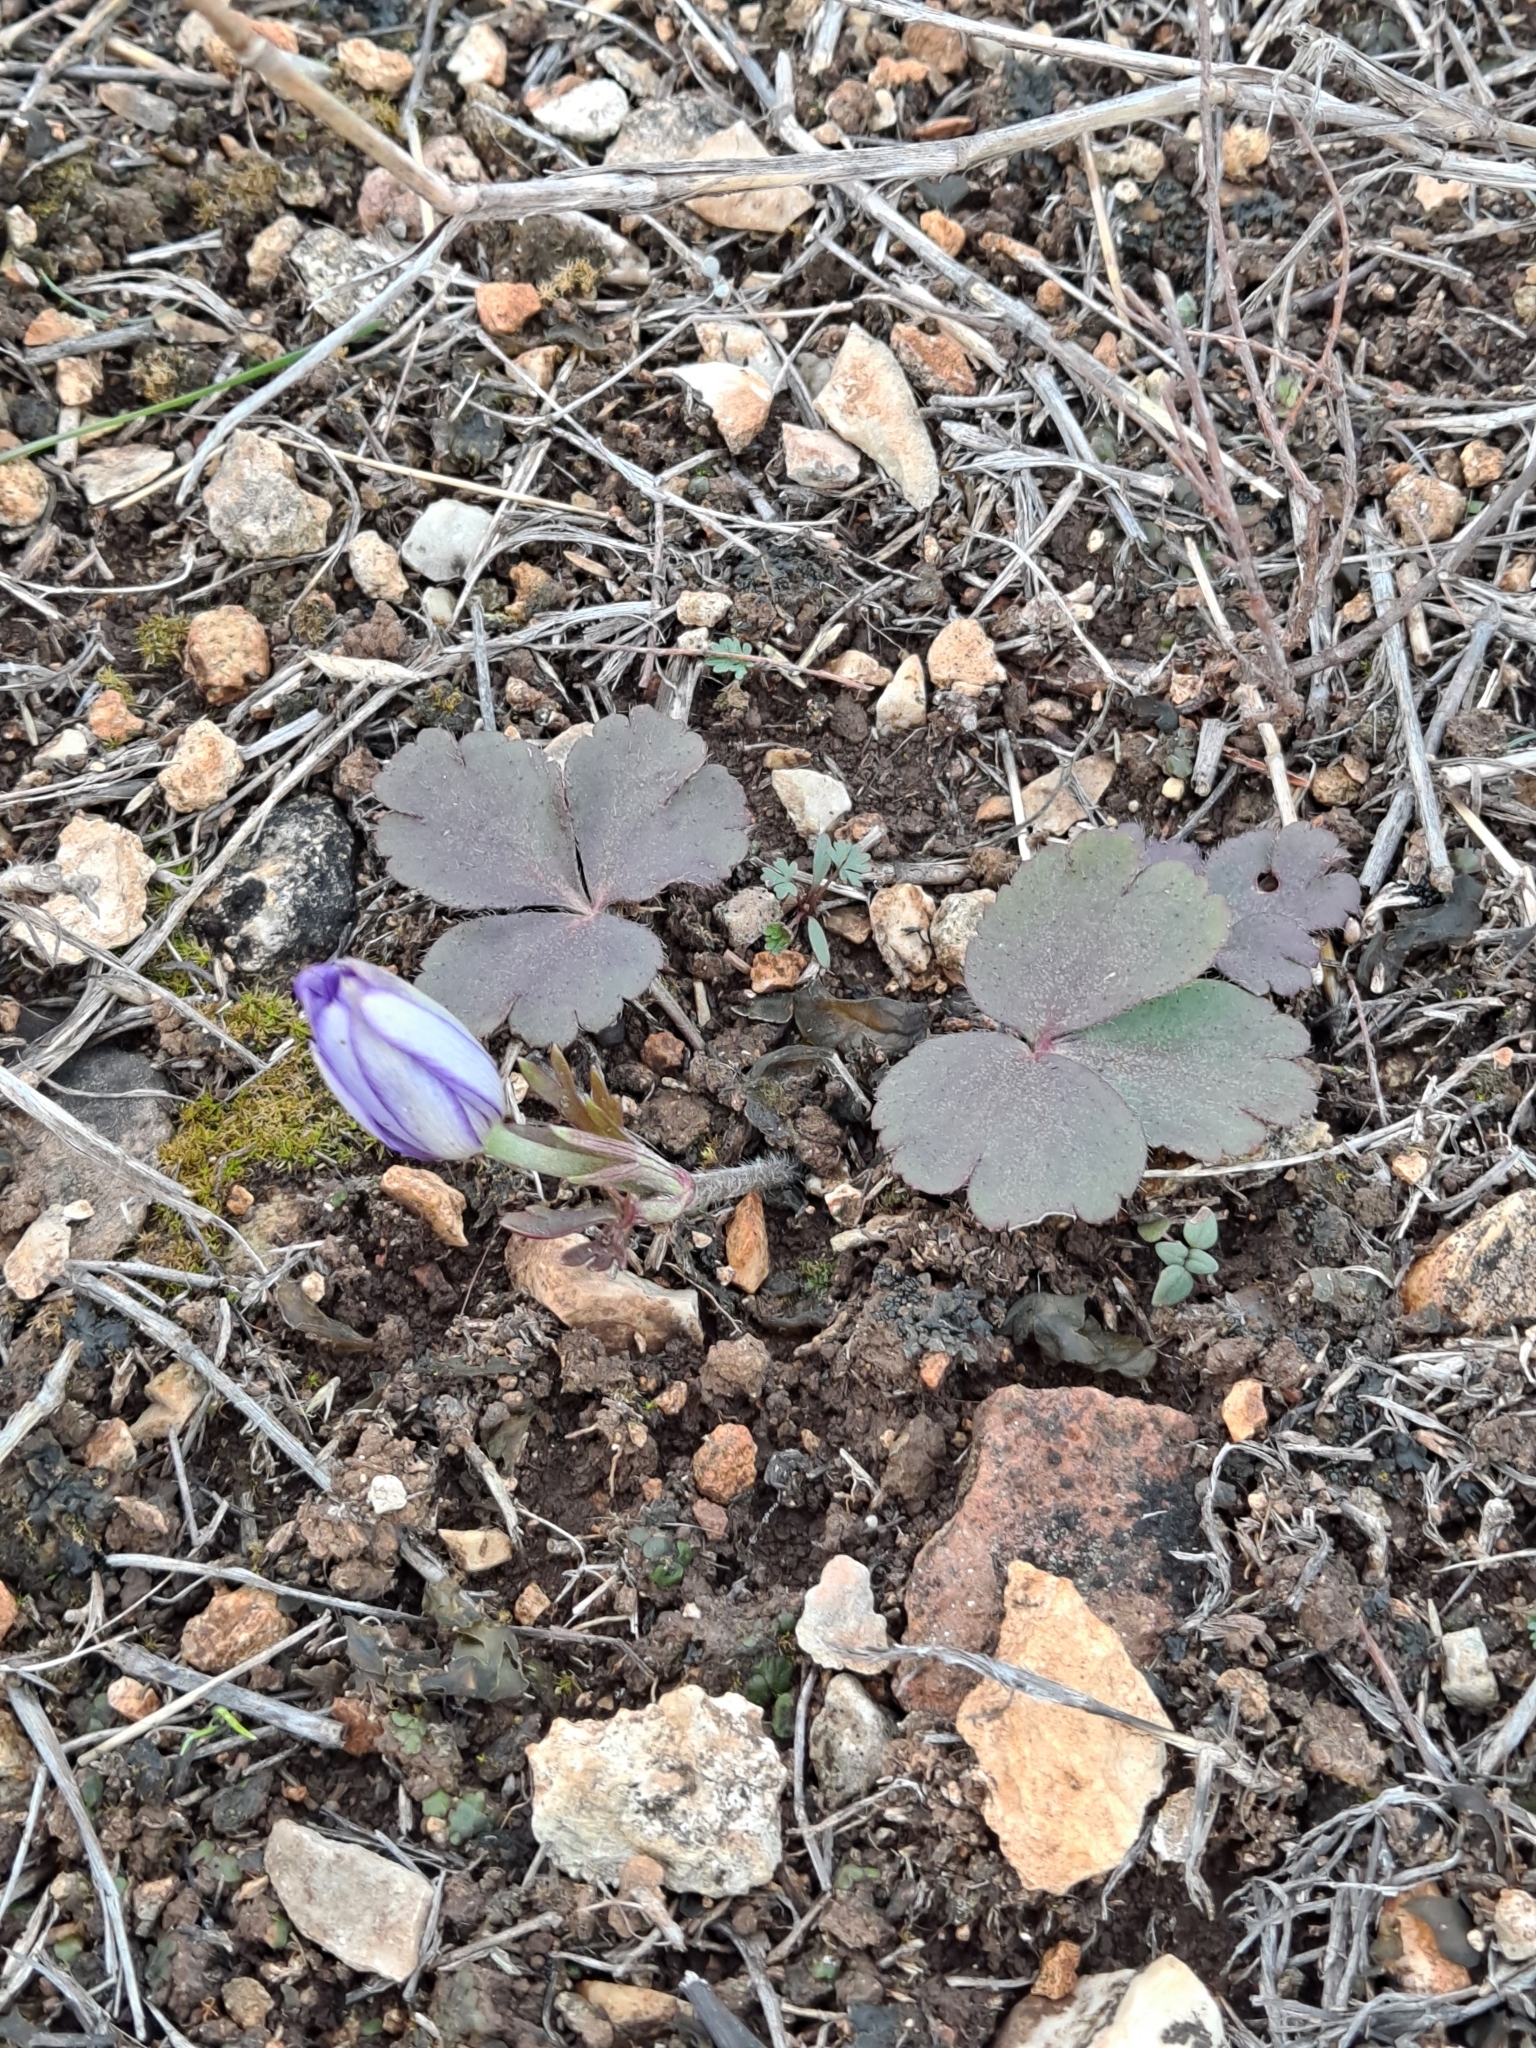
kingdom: Plantae
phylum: Tracheophyta
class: Magnoliopsida
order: Ranunculales
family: Ranunculaceae
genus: Anemone
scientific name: Anemone berlandieri
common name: Ten-petal anemone
